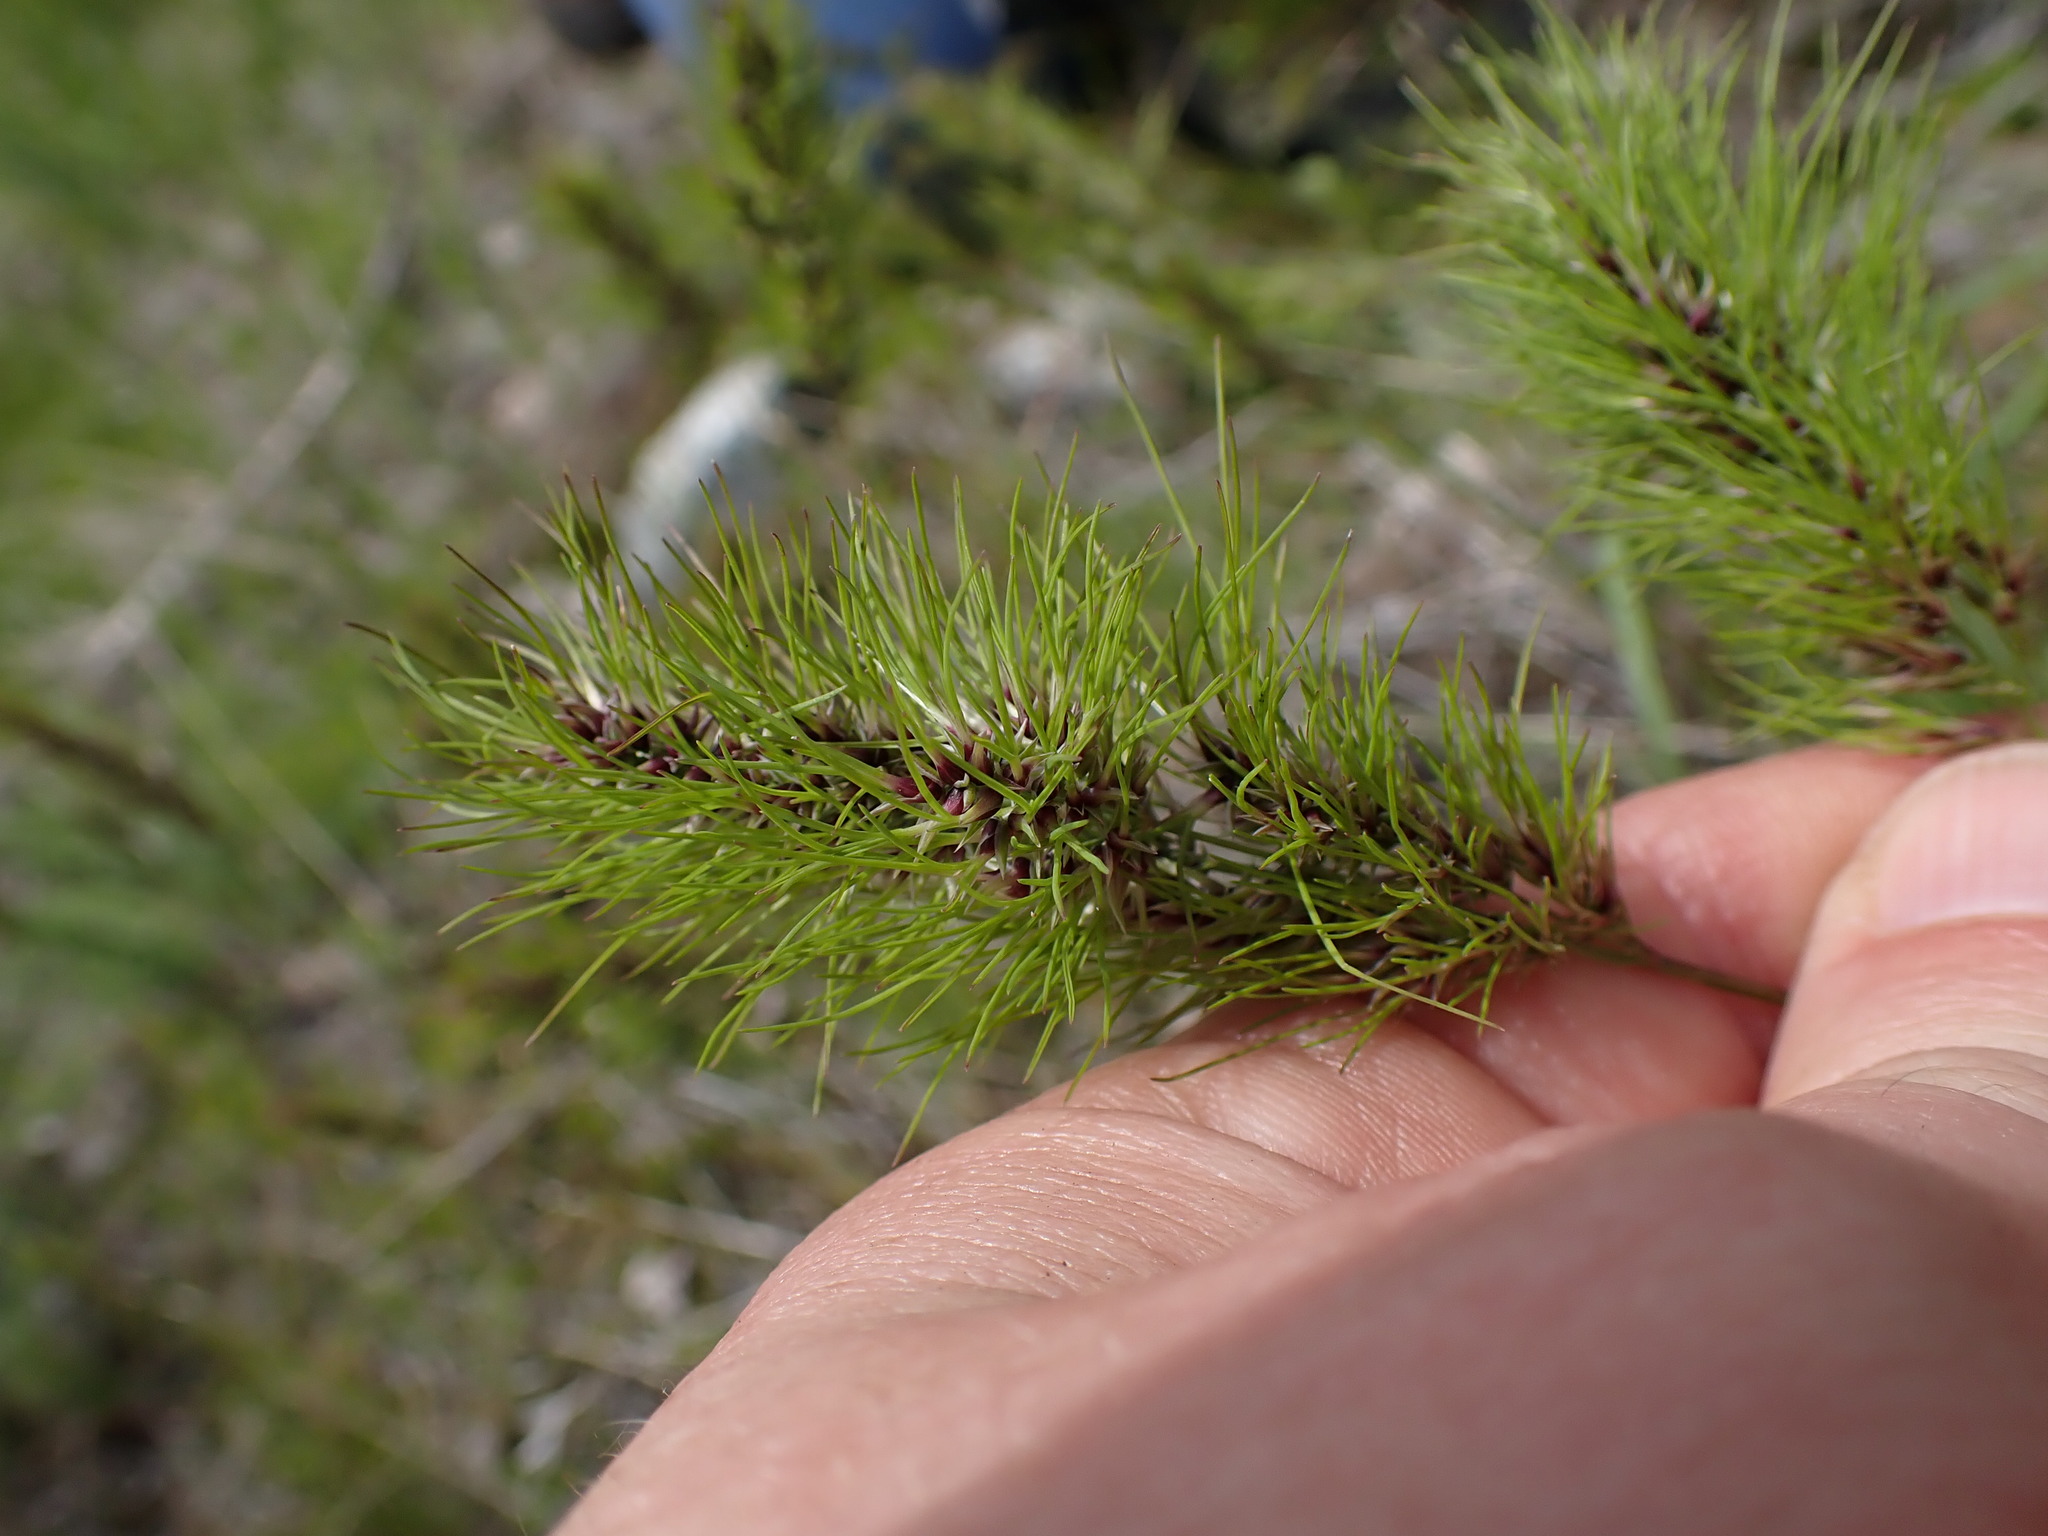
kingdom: Plantae
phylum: Tracheophyta
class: Liliopsida
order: Poales
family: Poaceae
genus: Poa
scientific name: Poa bulbosa
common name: Bulbous bluegrass
